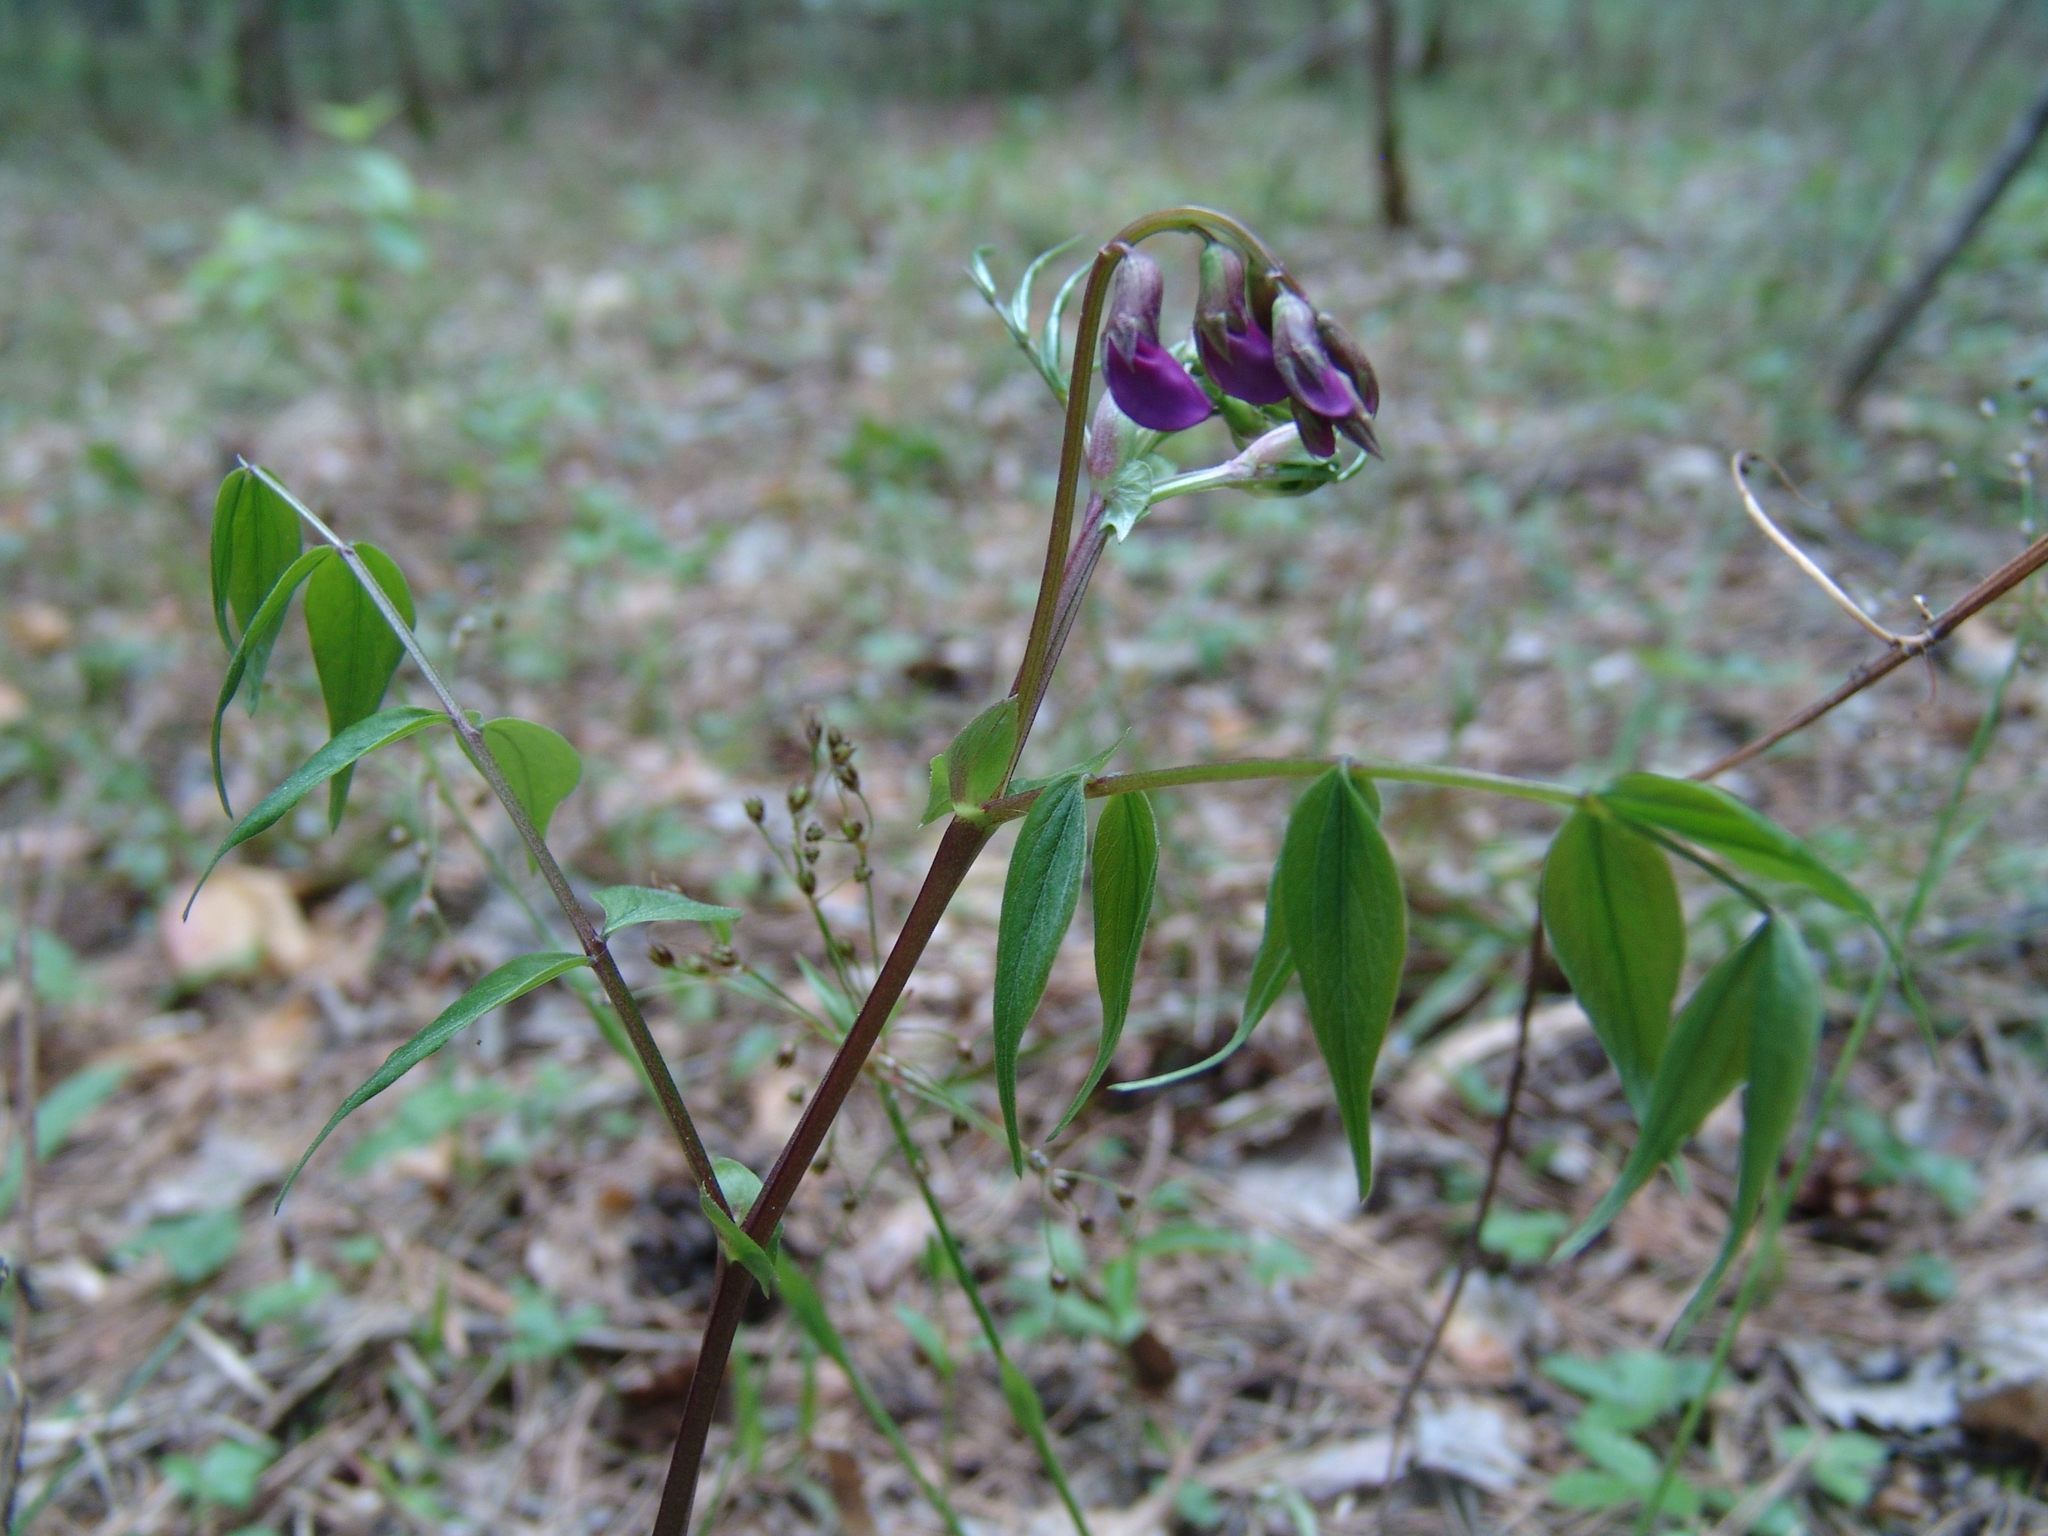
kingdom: Plantae
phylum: Tracheophyta
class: Magnoliopsida
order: Fabales
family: Fabaceae
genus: Lathyrus
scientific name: Lathyrus vernus
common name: Spring pea
